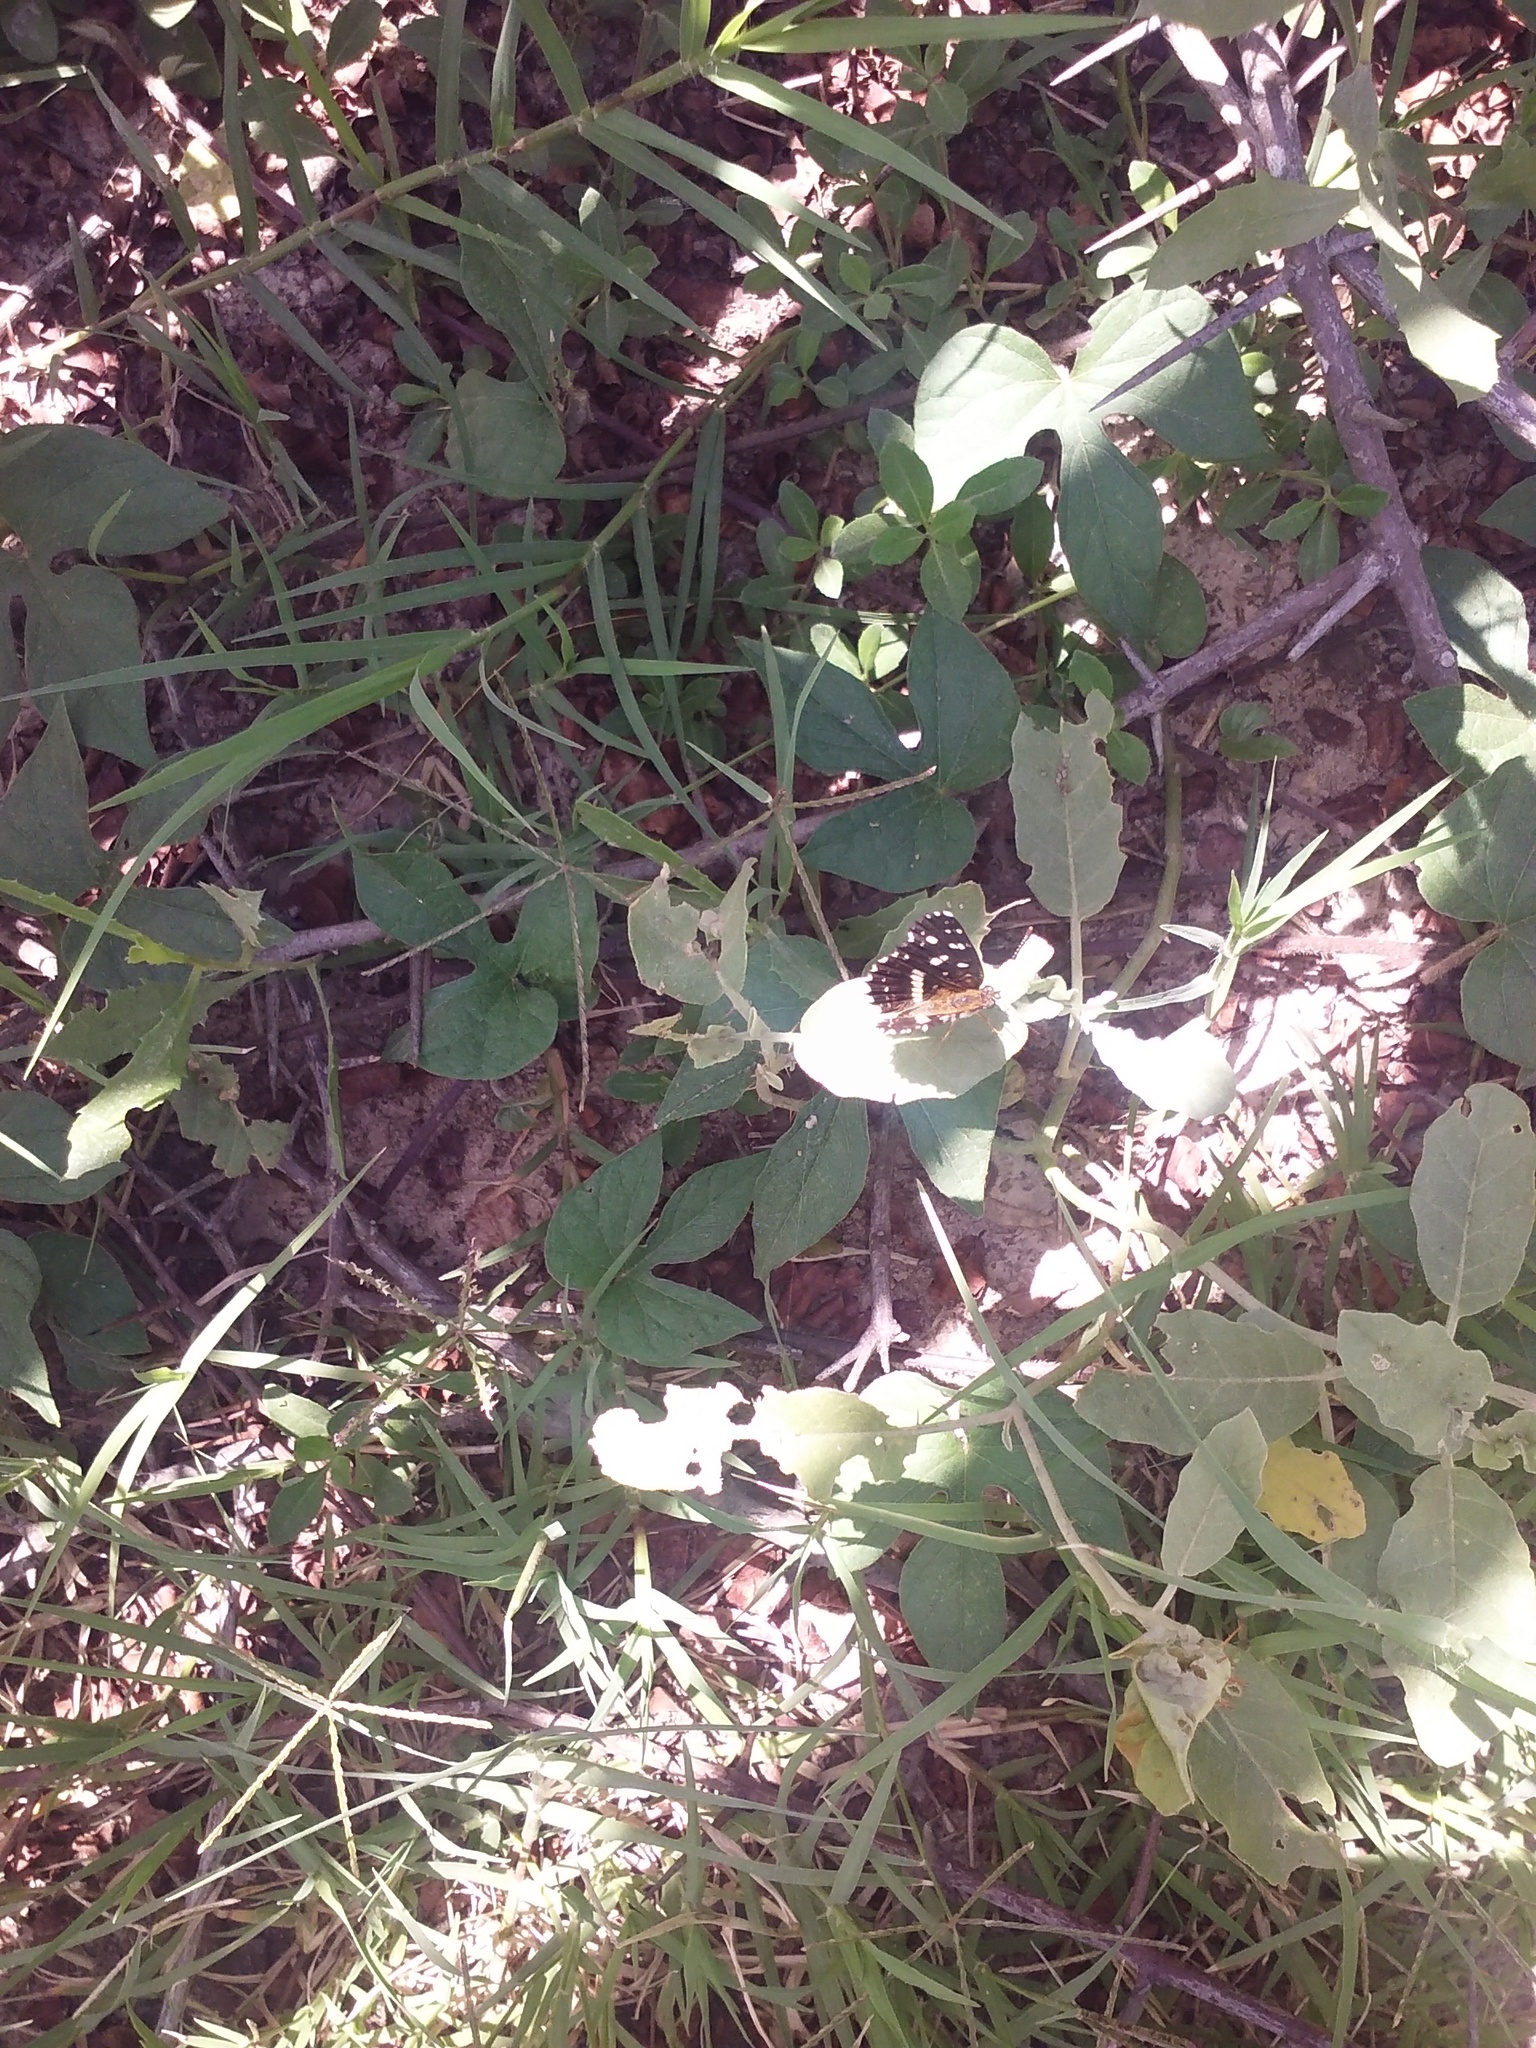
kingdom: Animalia
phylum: Arthropoda
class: Insecta
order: Lepidoptera
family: Nymphalidae
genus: Ortilia
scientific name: Ortilia ithra
